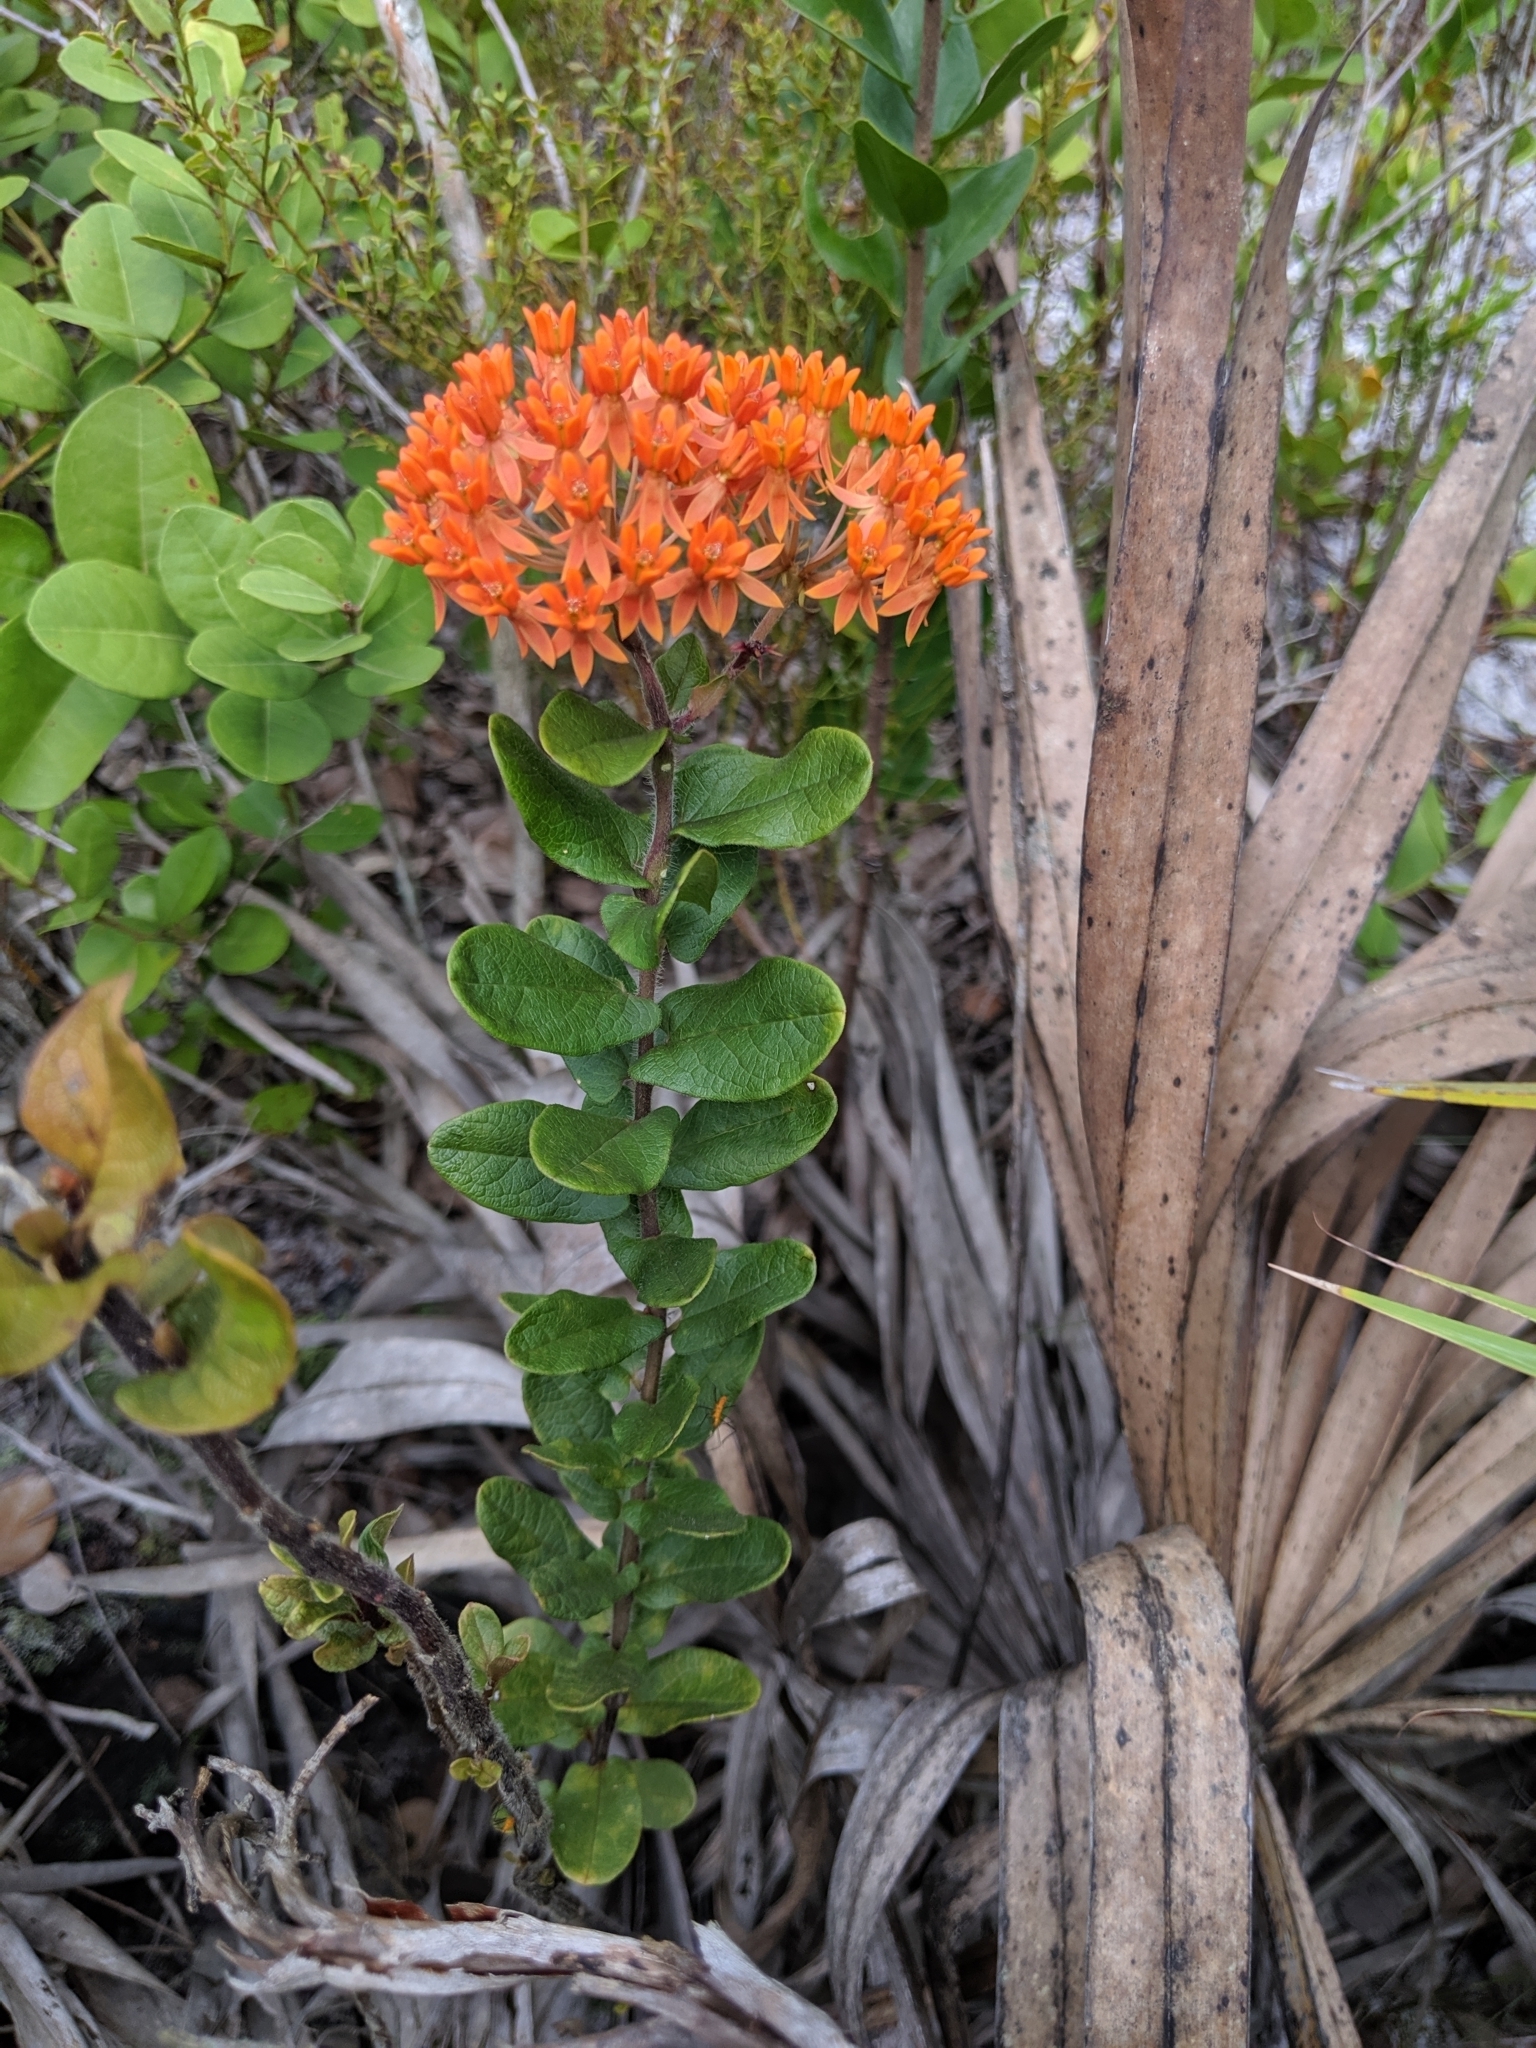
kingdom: Plantae
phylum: Tracheophyta
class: Magnoliopsida
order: Gentianales
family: Apocynaceae
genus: Asclepias
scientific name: Asclepias tuberosa
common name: Butterfly milkweed
